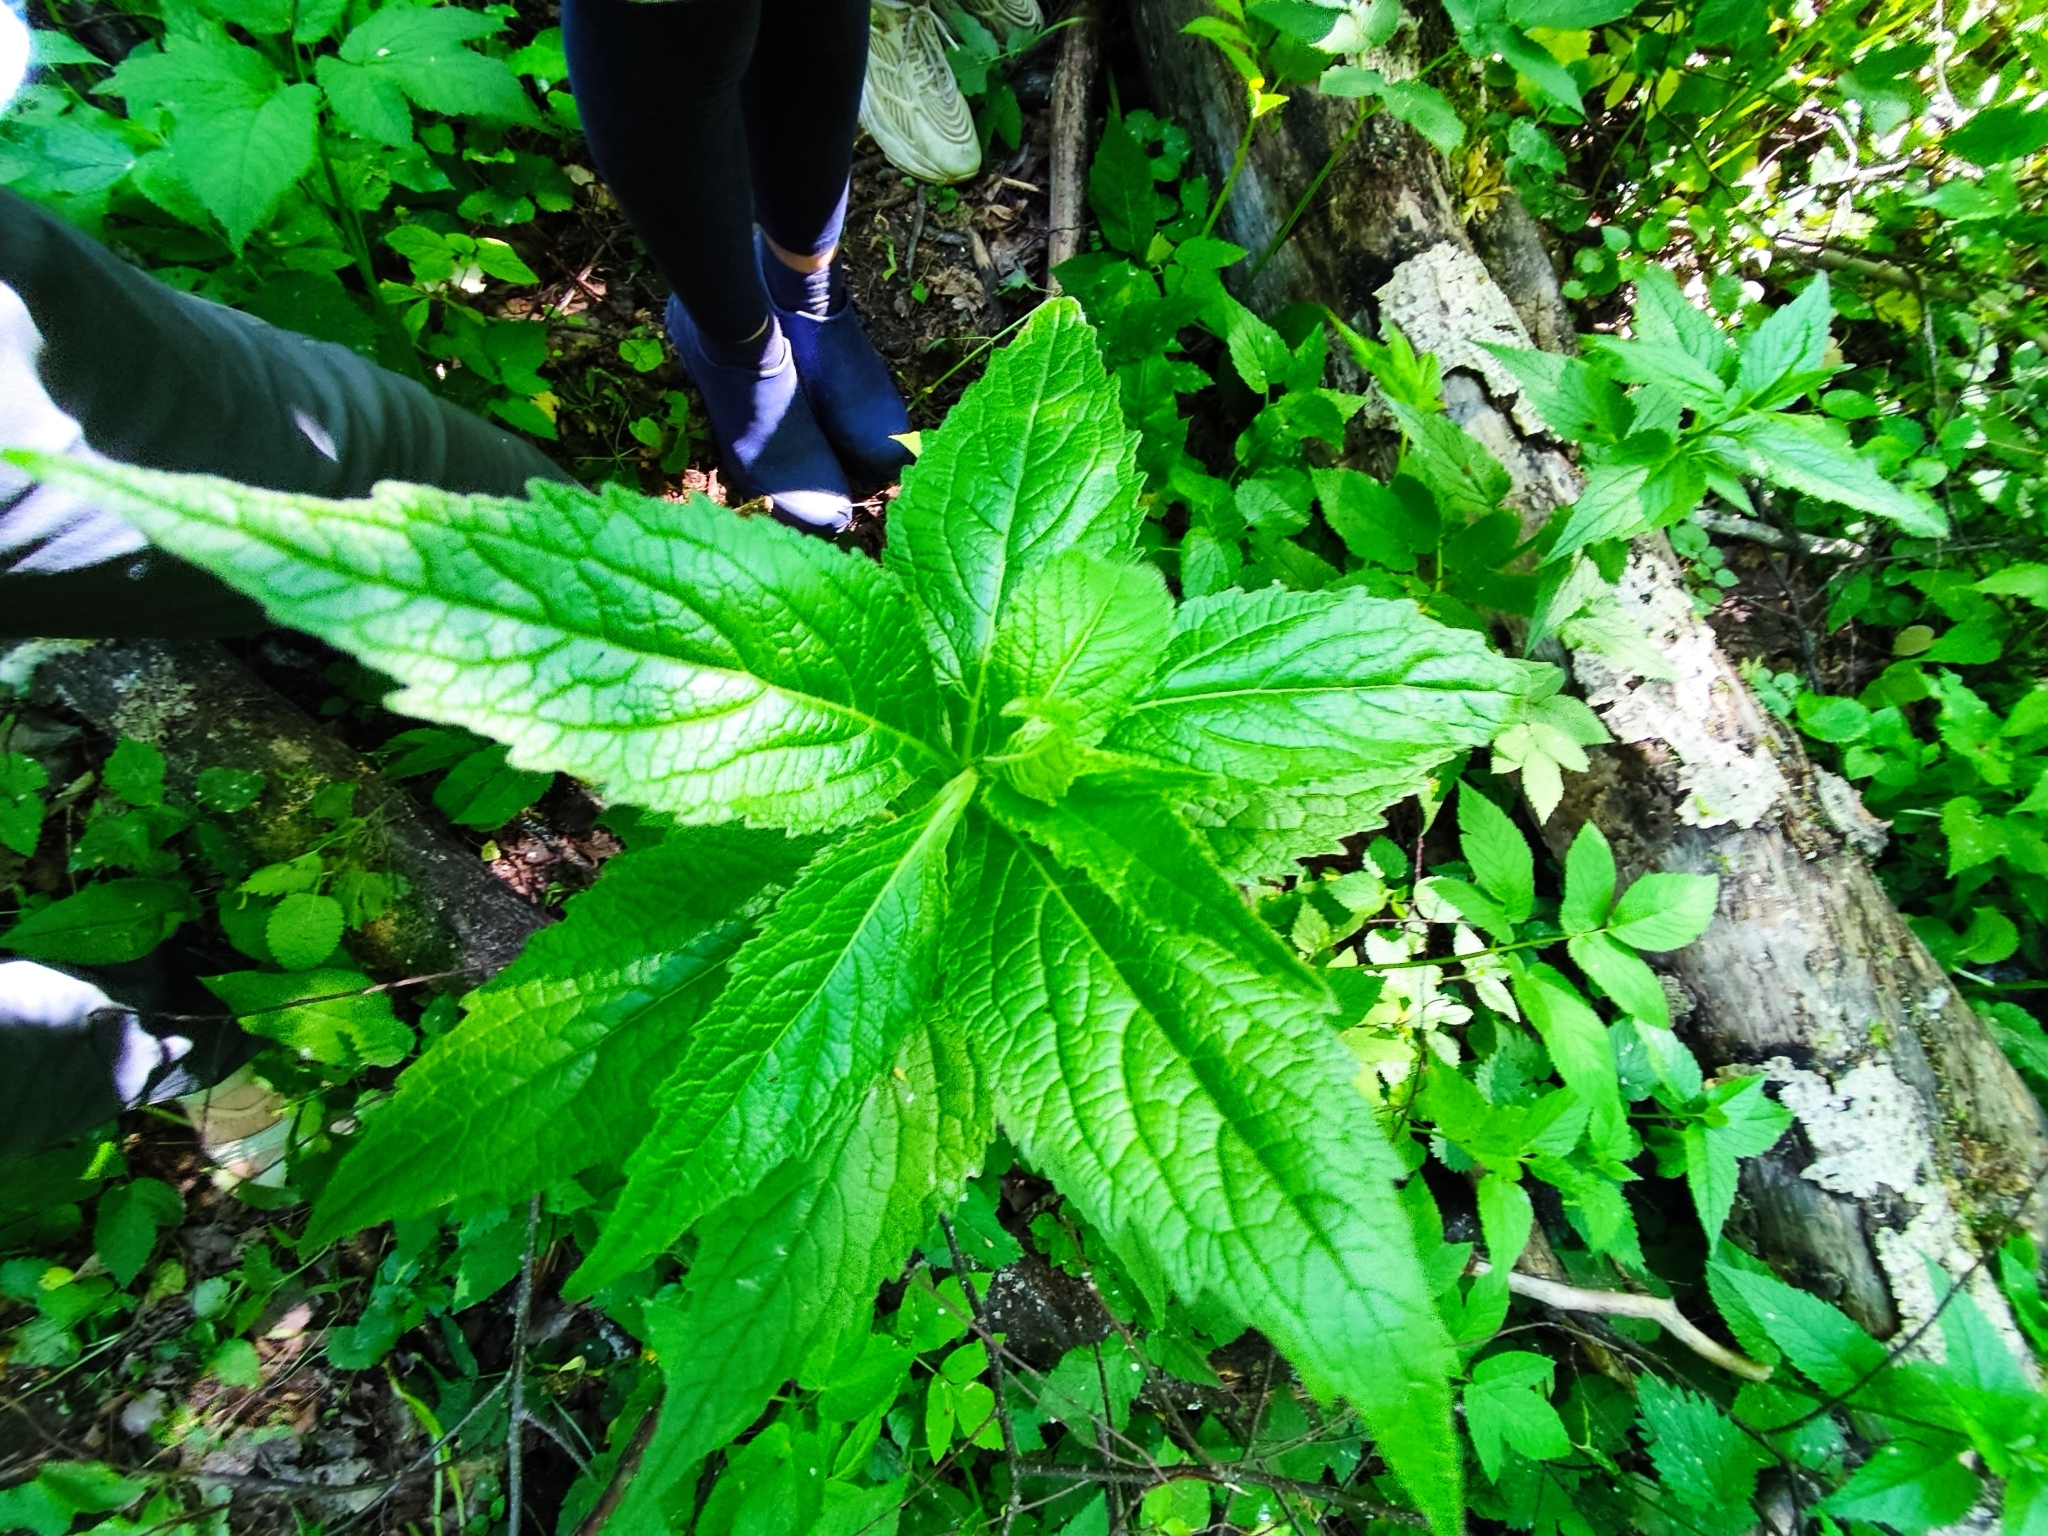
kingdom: Plantae
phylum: Tracheophyta
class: Magnoliopsida
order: Asterales
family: Campanulaceae
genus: Campanula
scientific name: Campanula latifolia
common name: Giant bellflower
